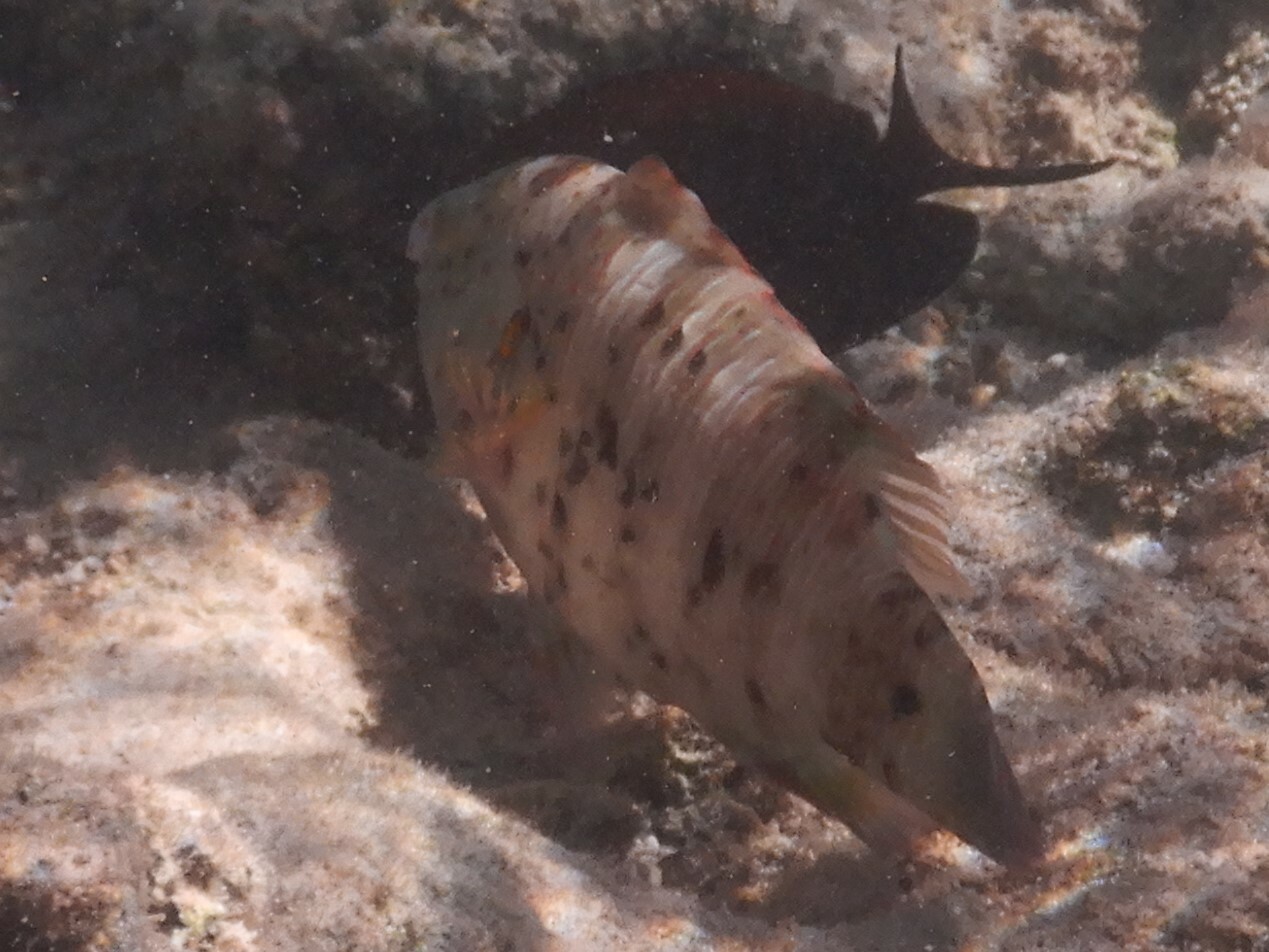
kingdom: Animalia
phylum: Chordata
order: Perciformes
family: Labridae
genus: Cheilinus
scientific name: Cheilinus lunulatus
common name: Broomtail wrasse
